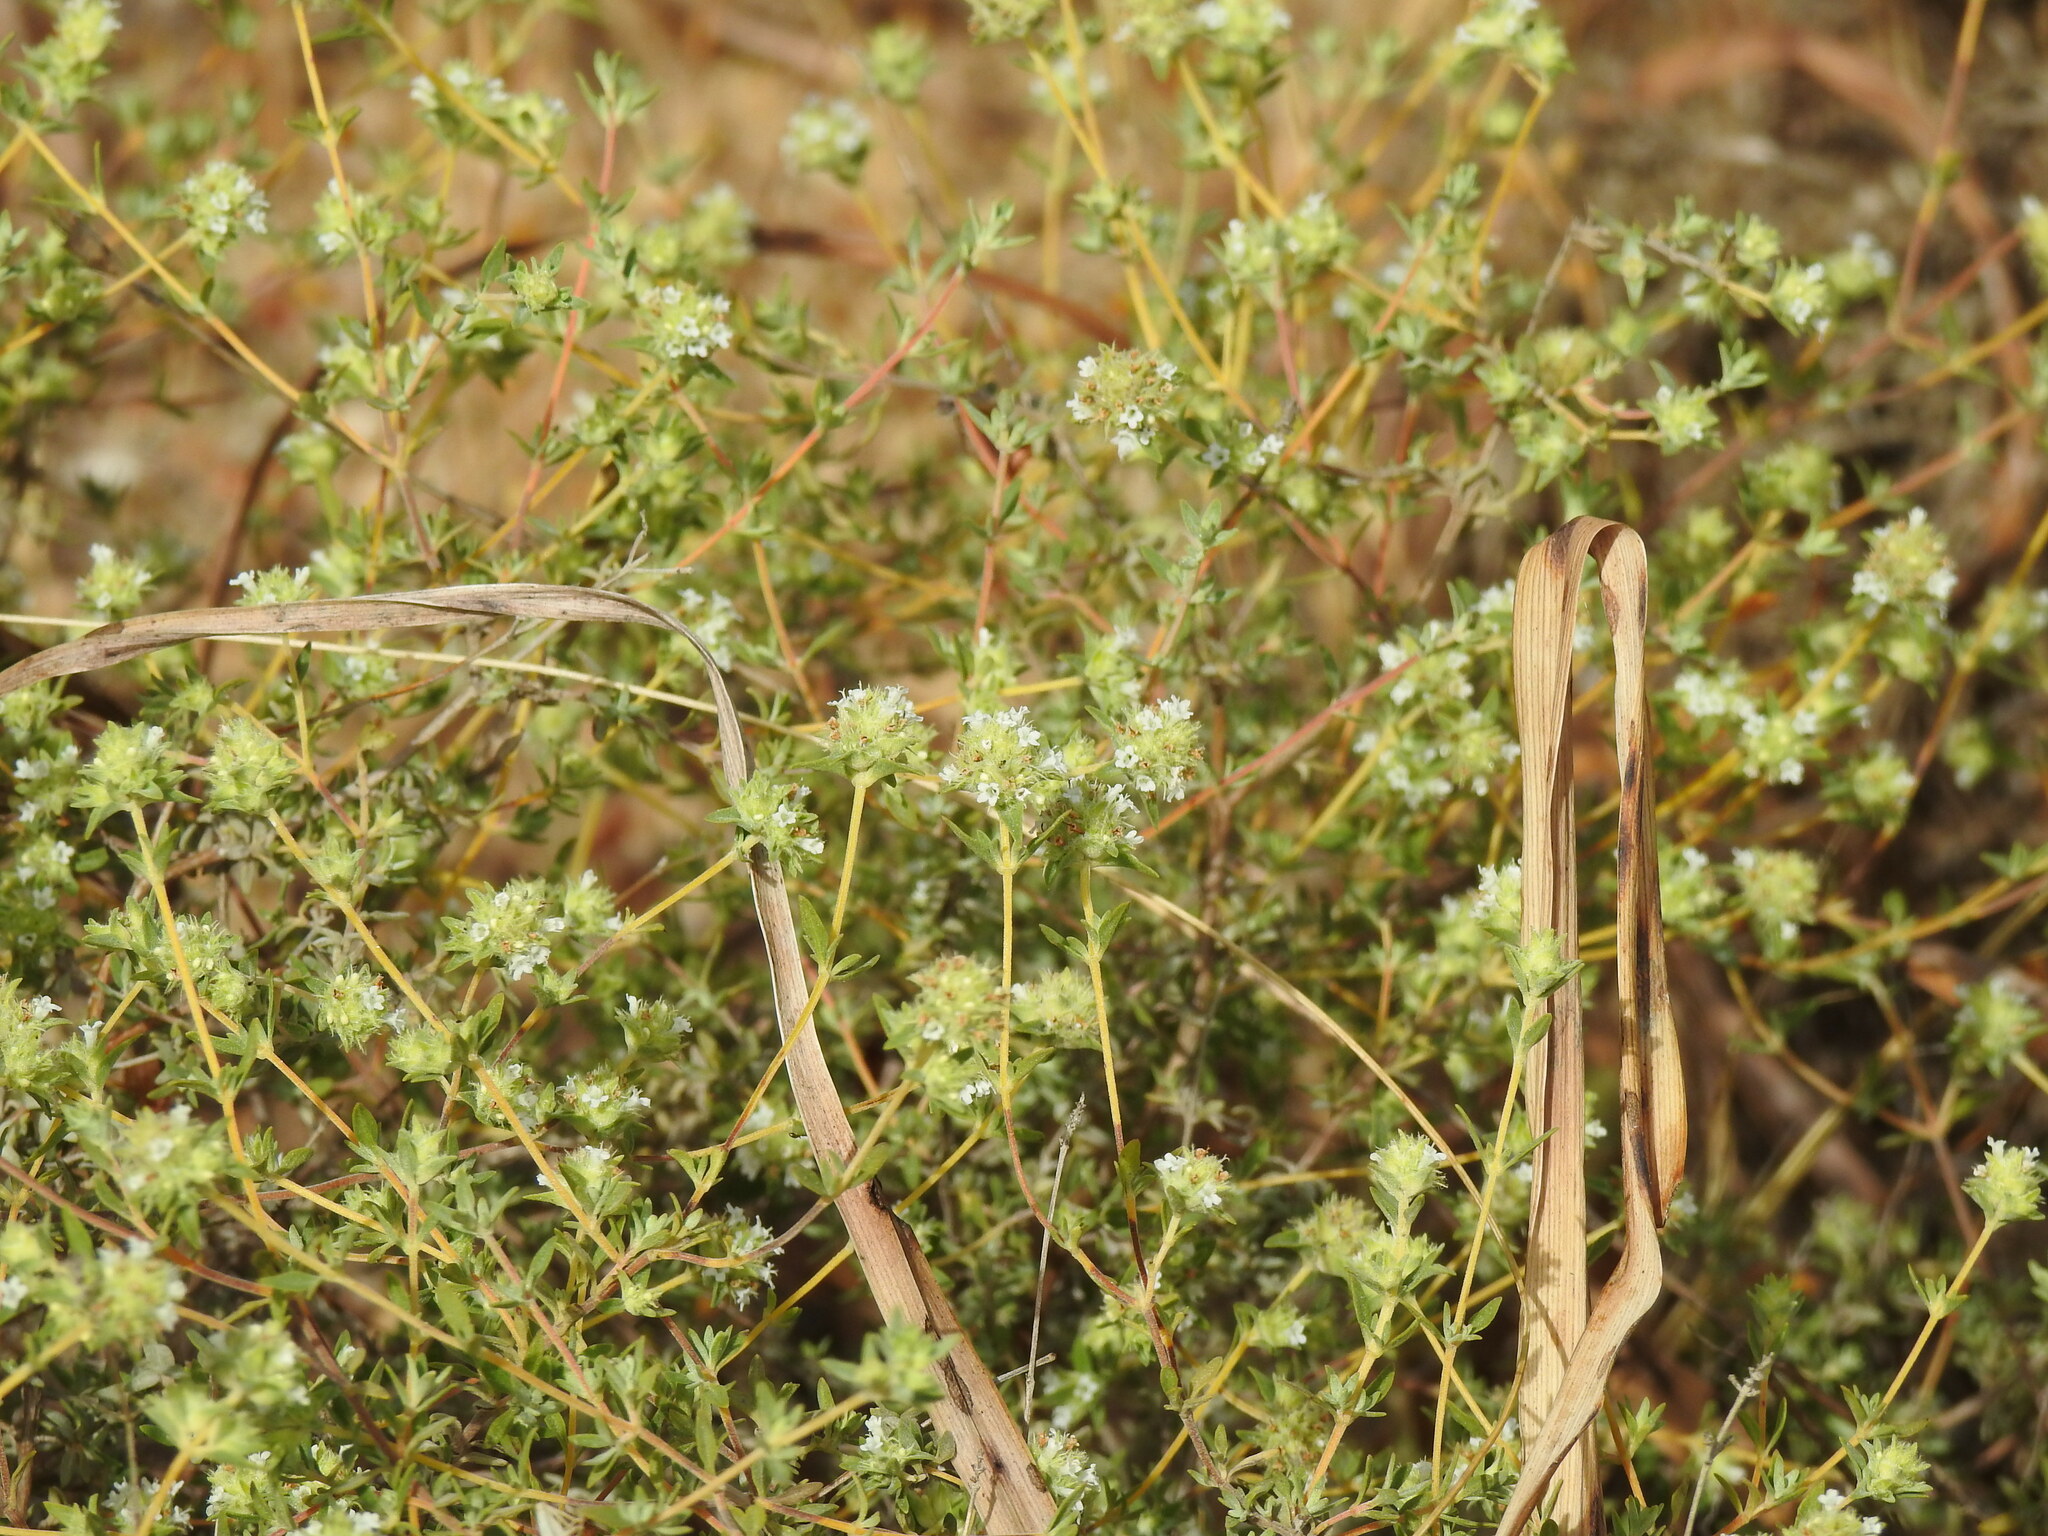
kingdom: Plantae
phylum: Tracheophyta
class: Magnoliopsida
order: Lamiales
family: Lamiaceae
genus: Thymus
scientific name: Thymus albicans
